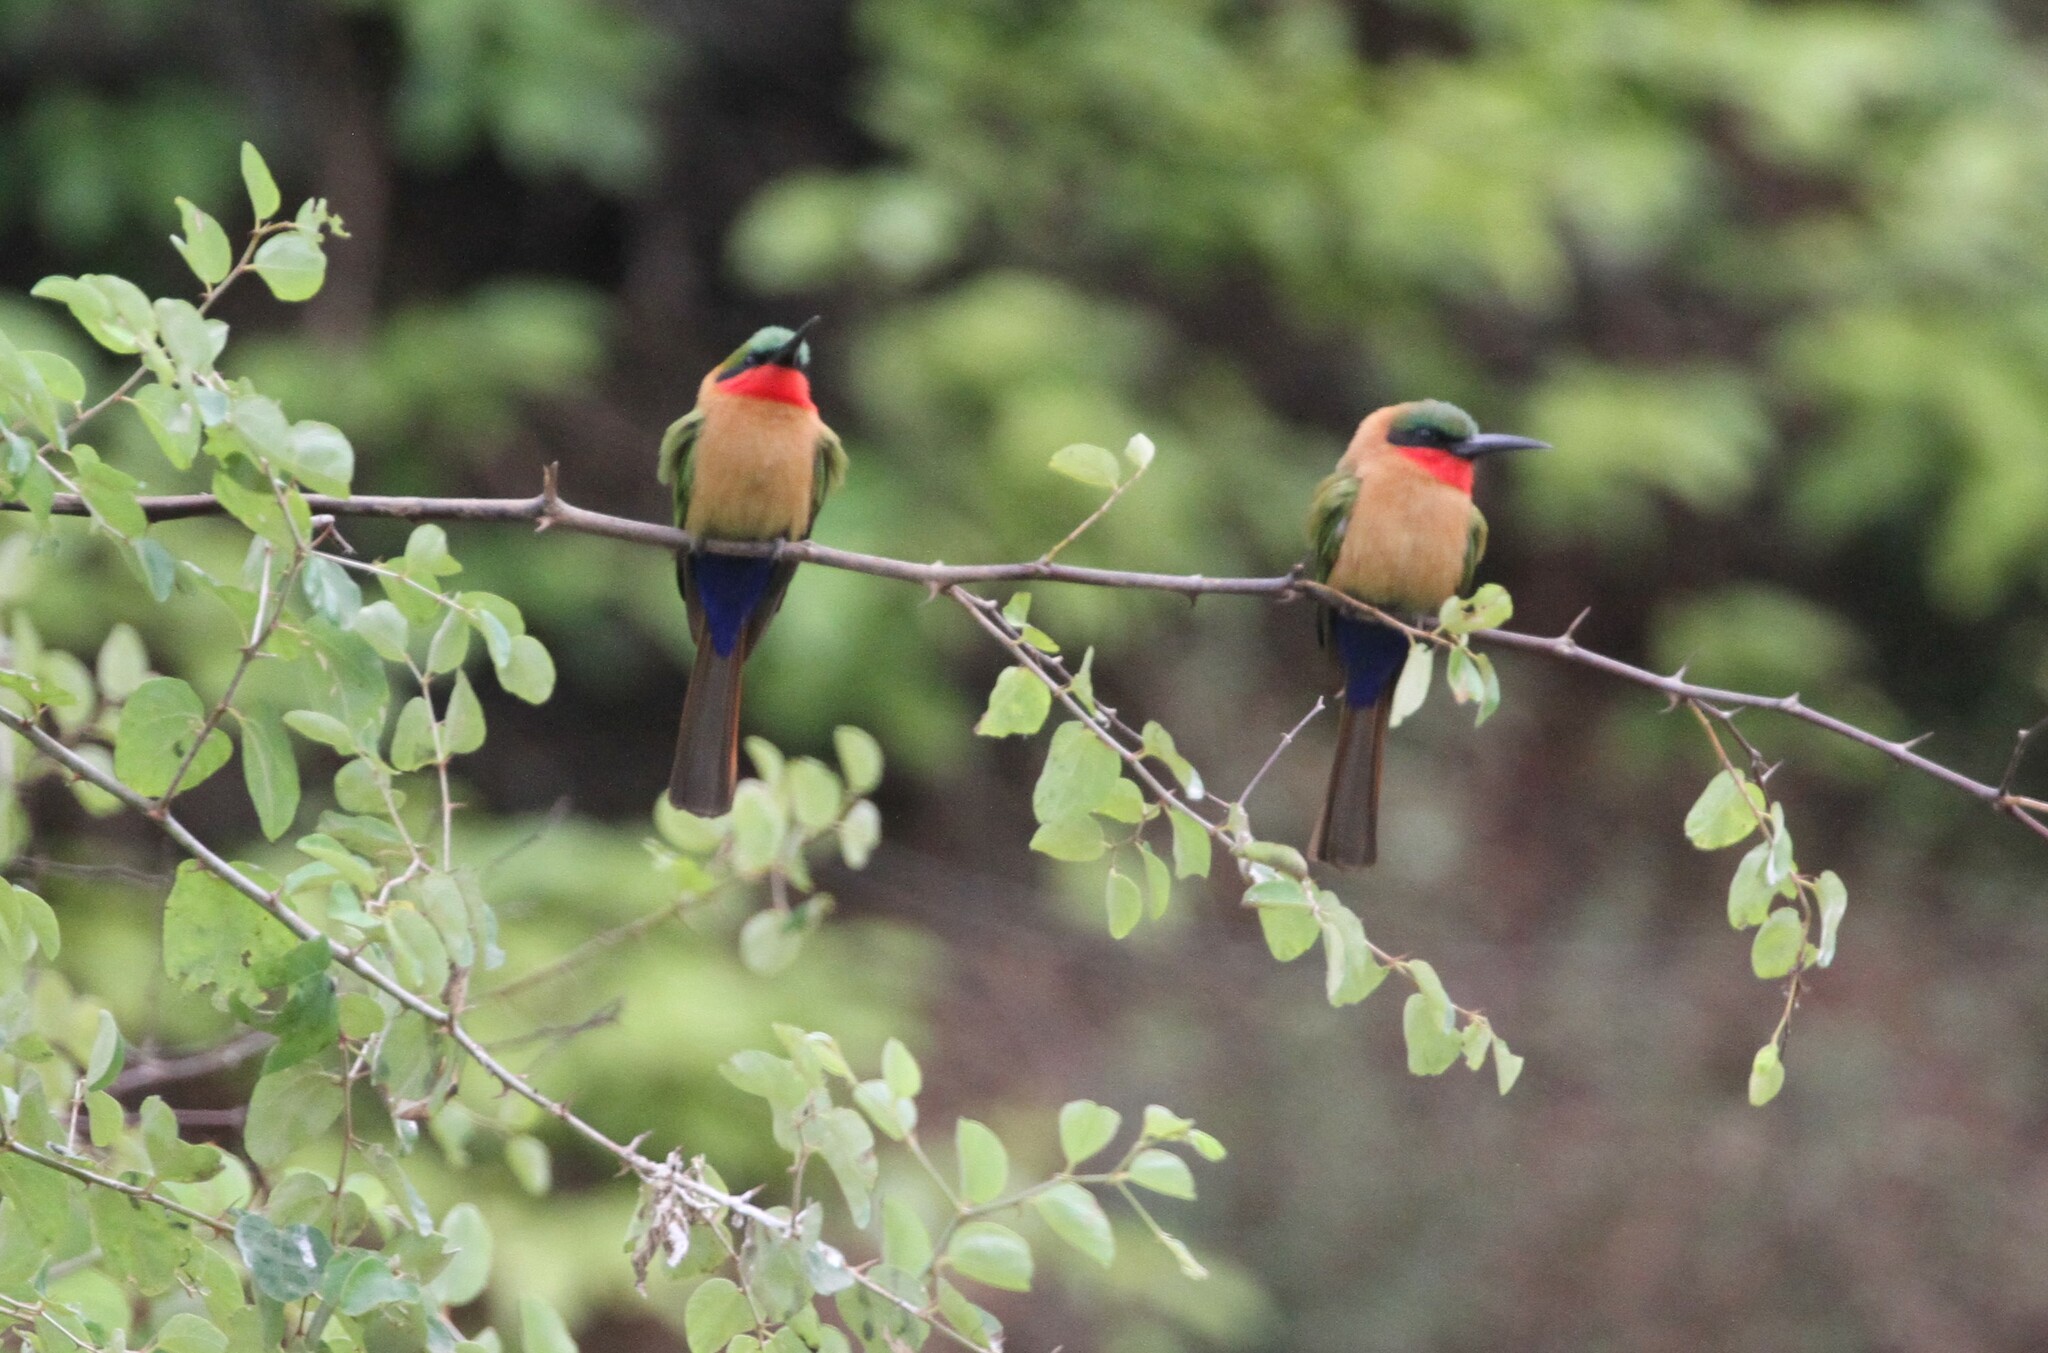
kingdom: Animalia
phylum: Chordata
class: Aves
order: Coraciiformes
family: Meropidae
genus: Merops
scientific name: Merops bulocki
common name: Red-throated bee-eater
